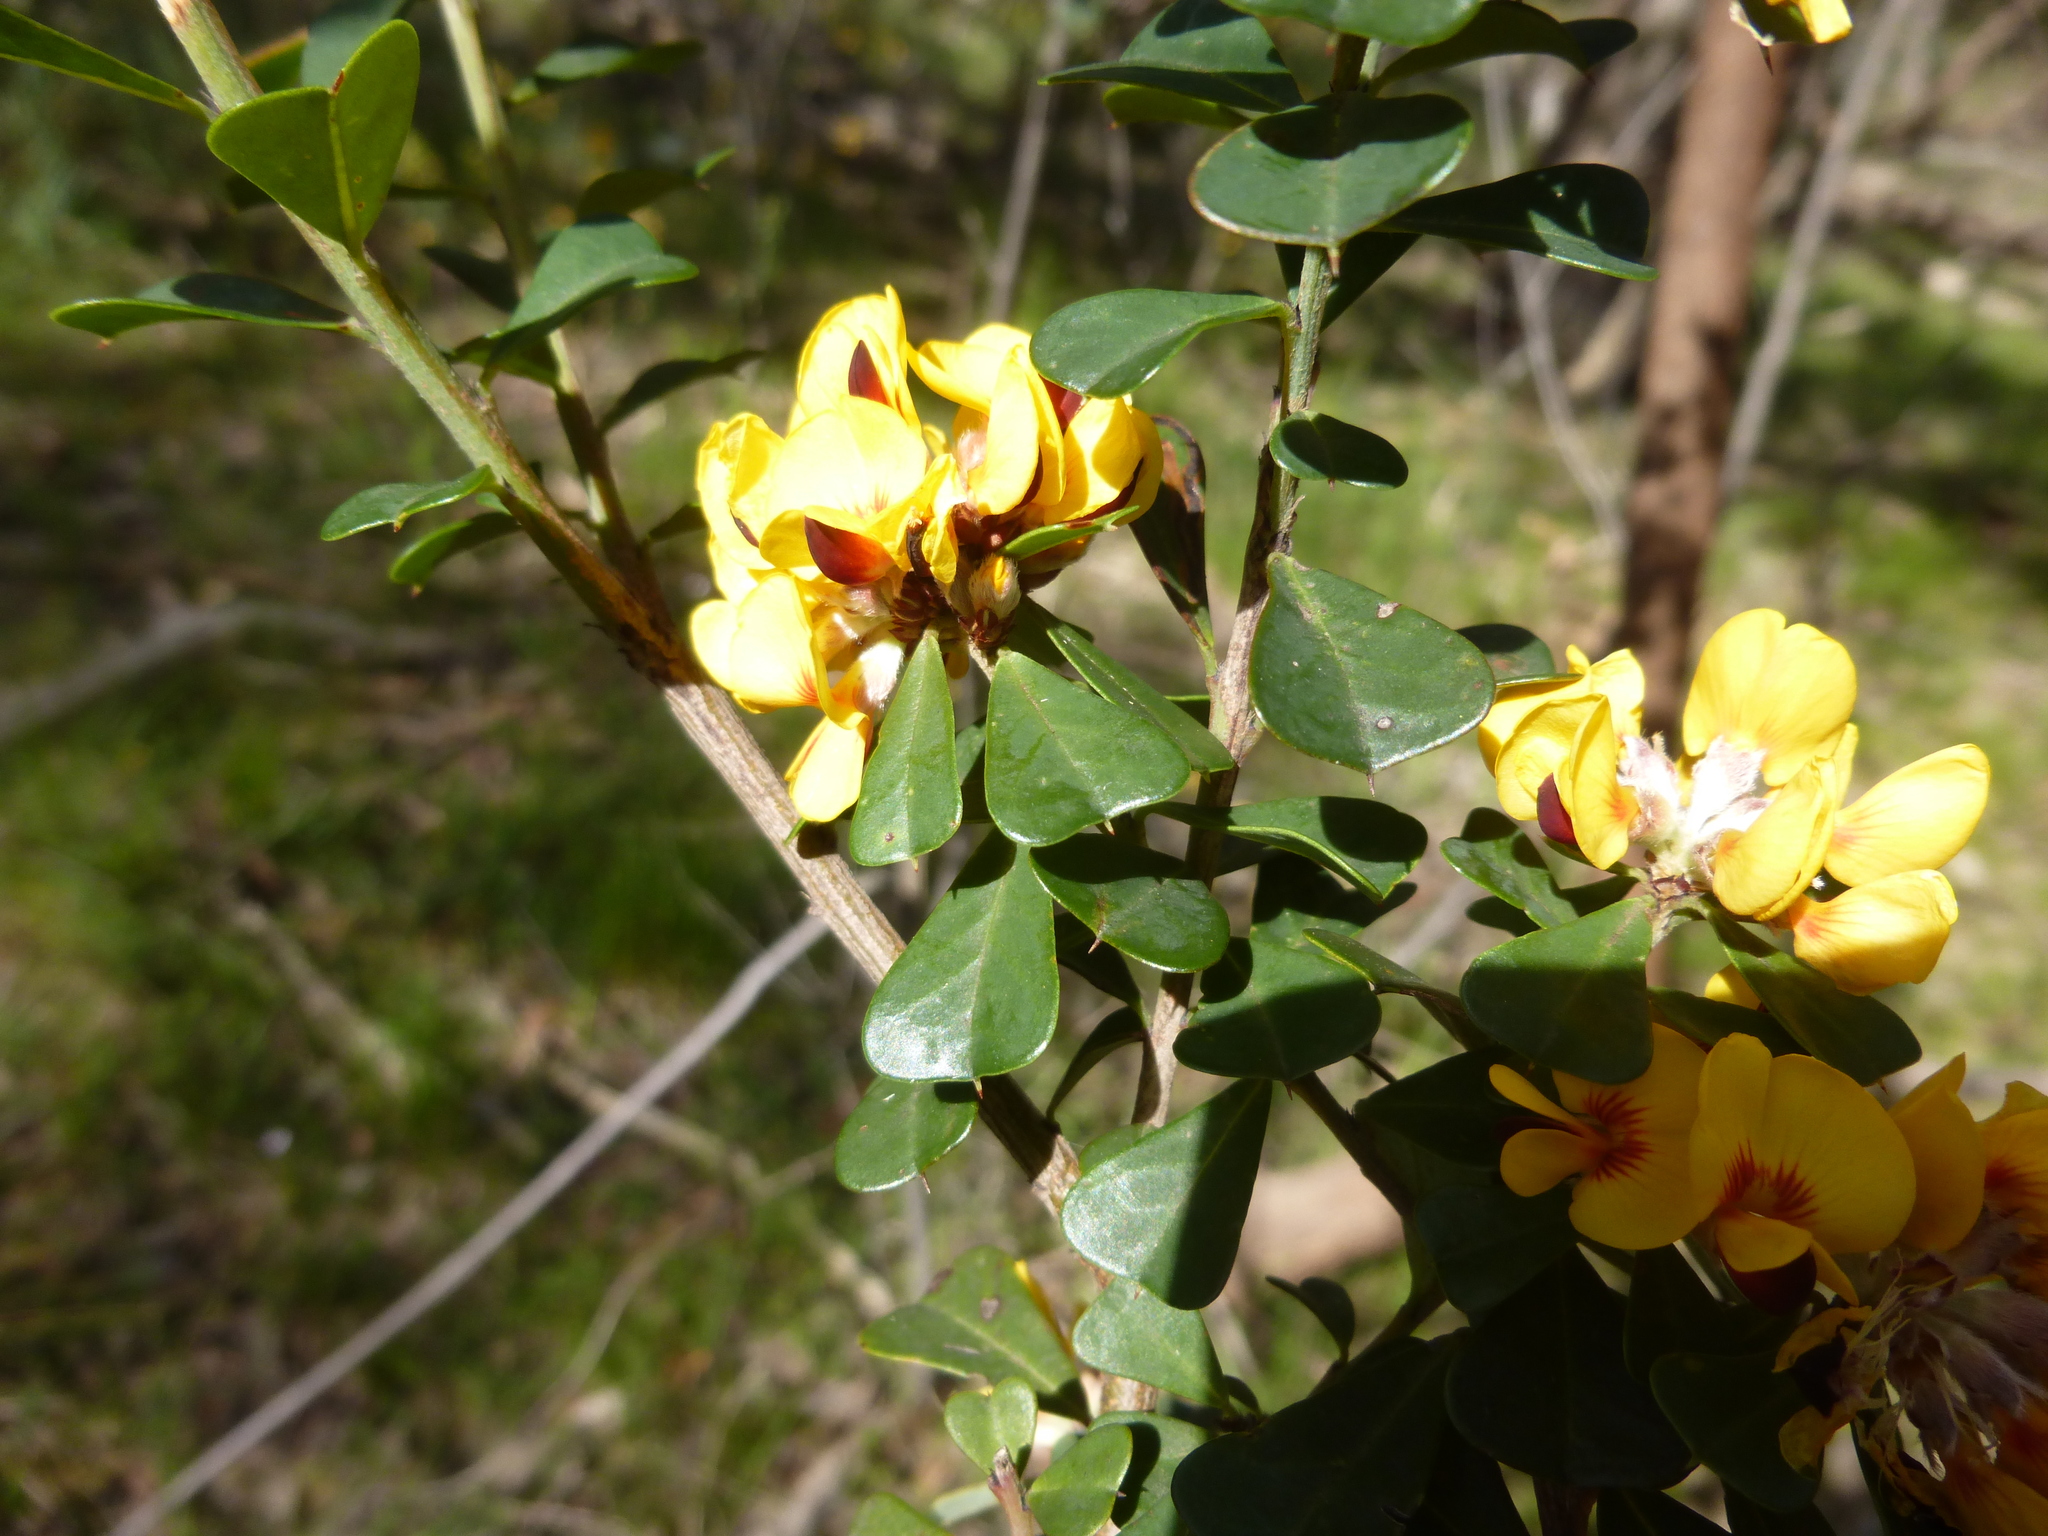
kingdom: Plantae
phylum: Tracheophyta
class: Magnoliopsida
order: Fabales
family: Fabaceae
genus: Pultenaea
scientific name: Pultenaea daphnoides
